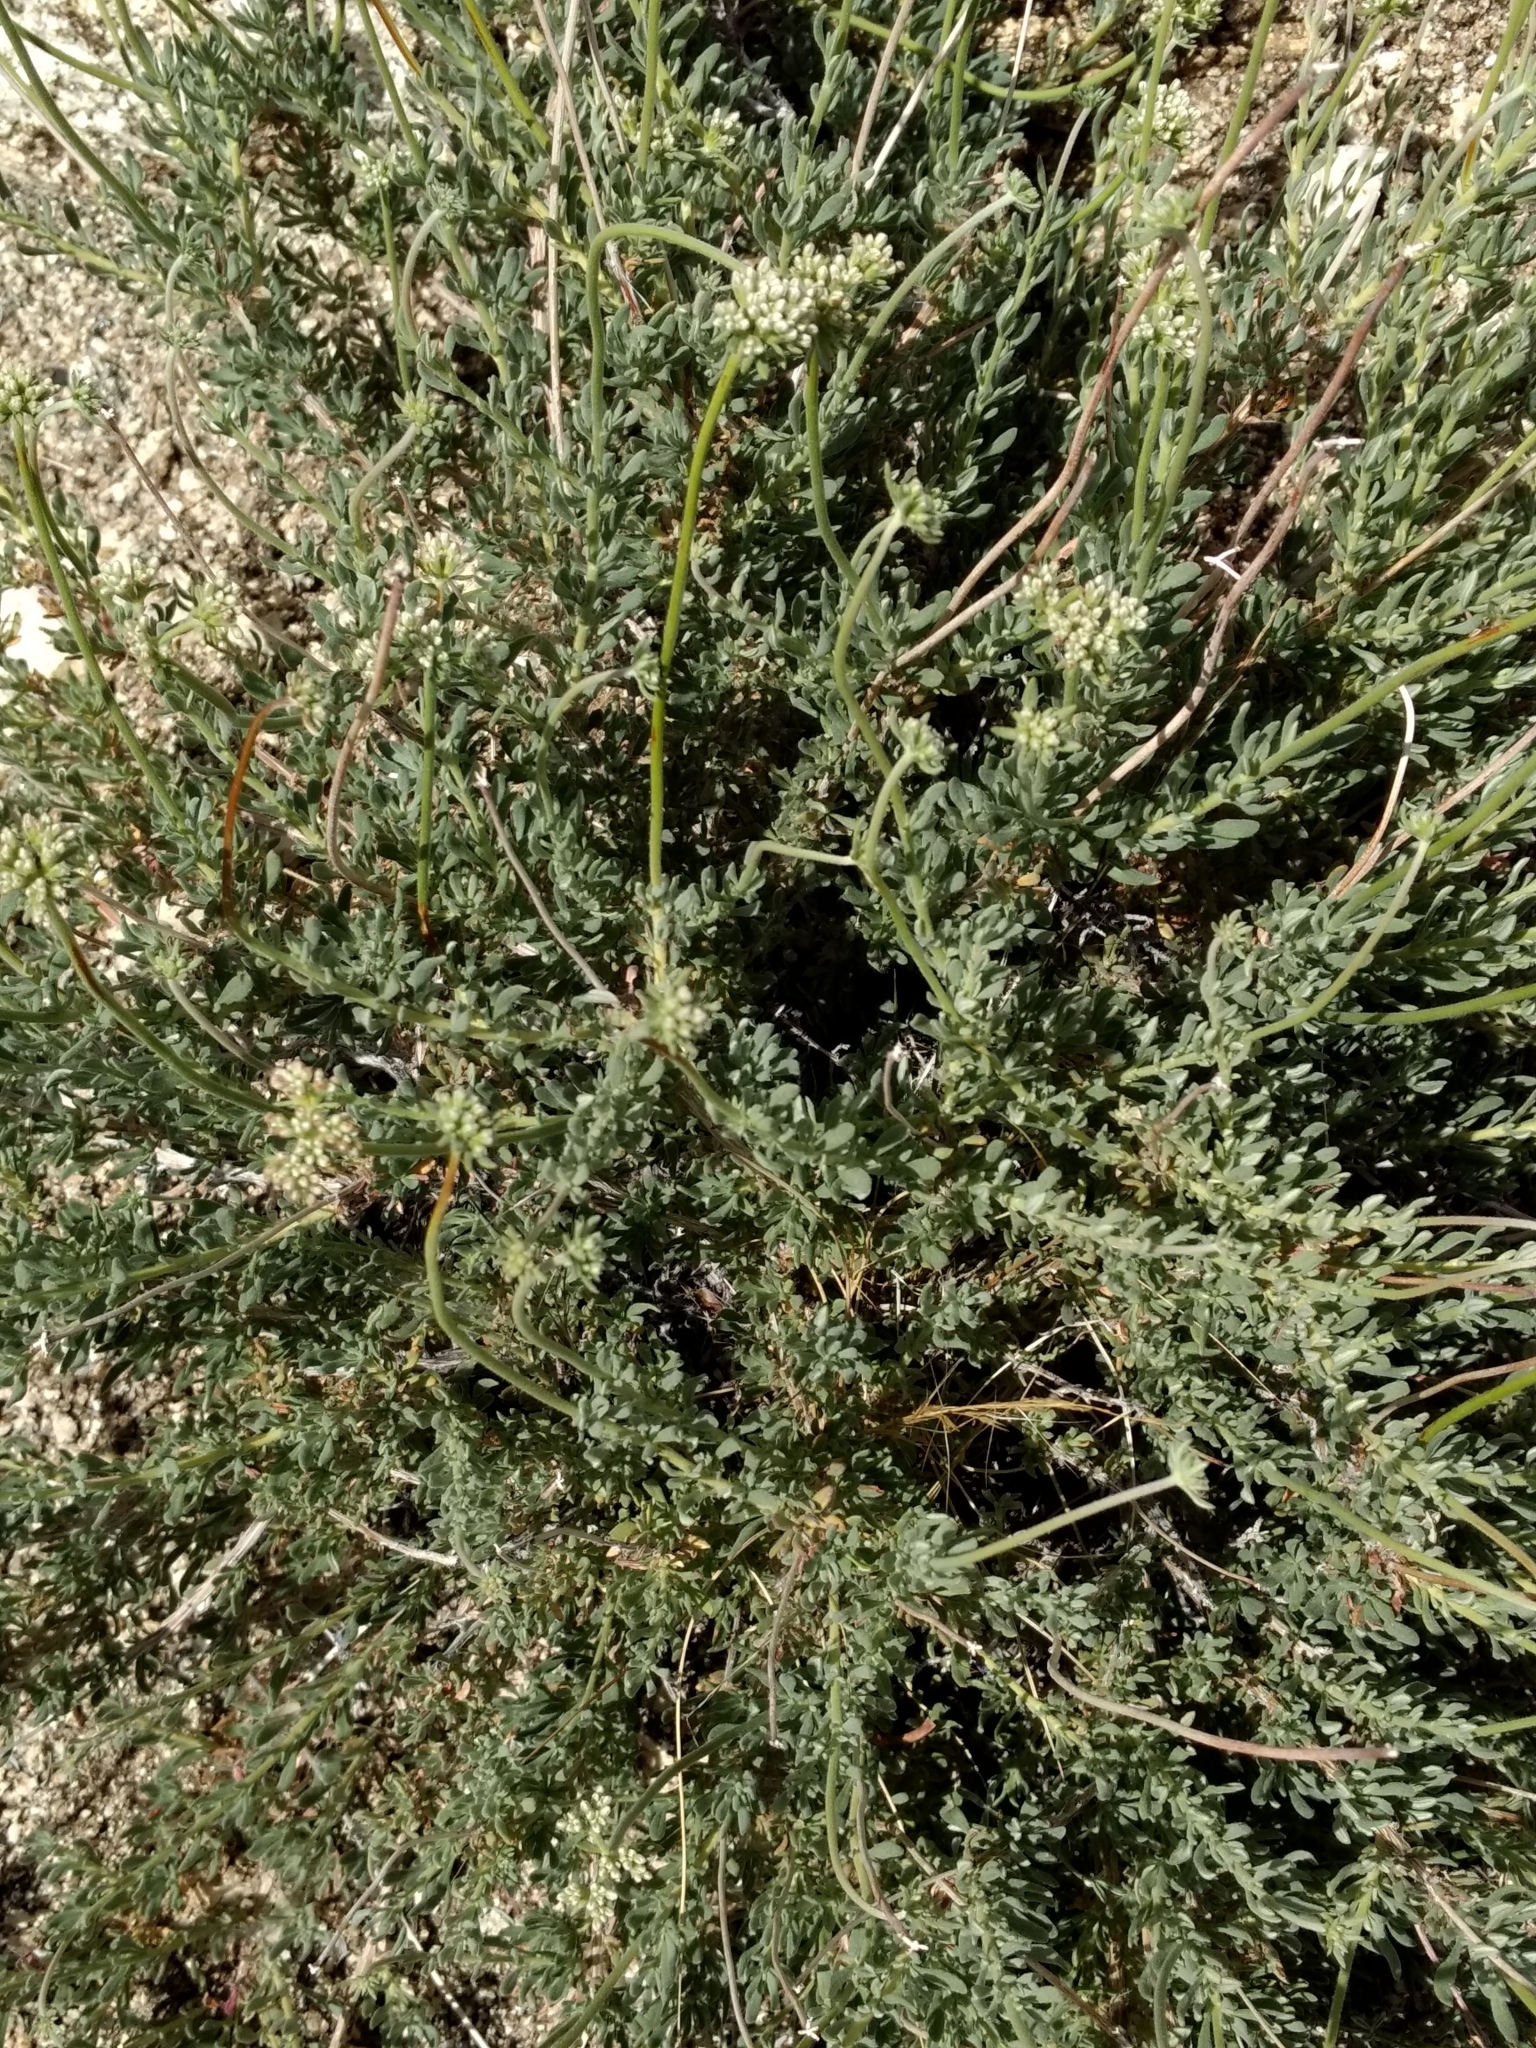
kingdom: Plantae
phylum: Tracheophyta
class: Magnoliopsida
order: Caryophyllales
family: Polygonaceae
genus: Eriogonum
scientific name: Eriogonum fasciculatum
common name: California wild buckwheat
